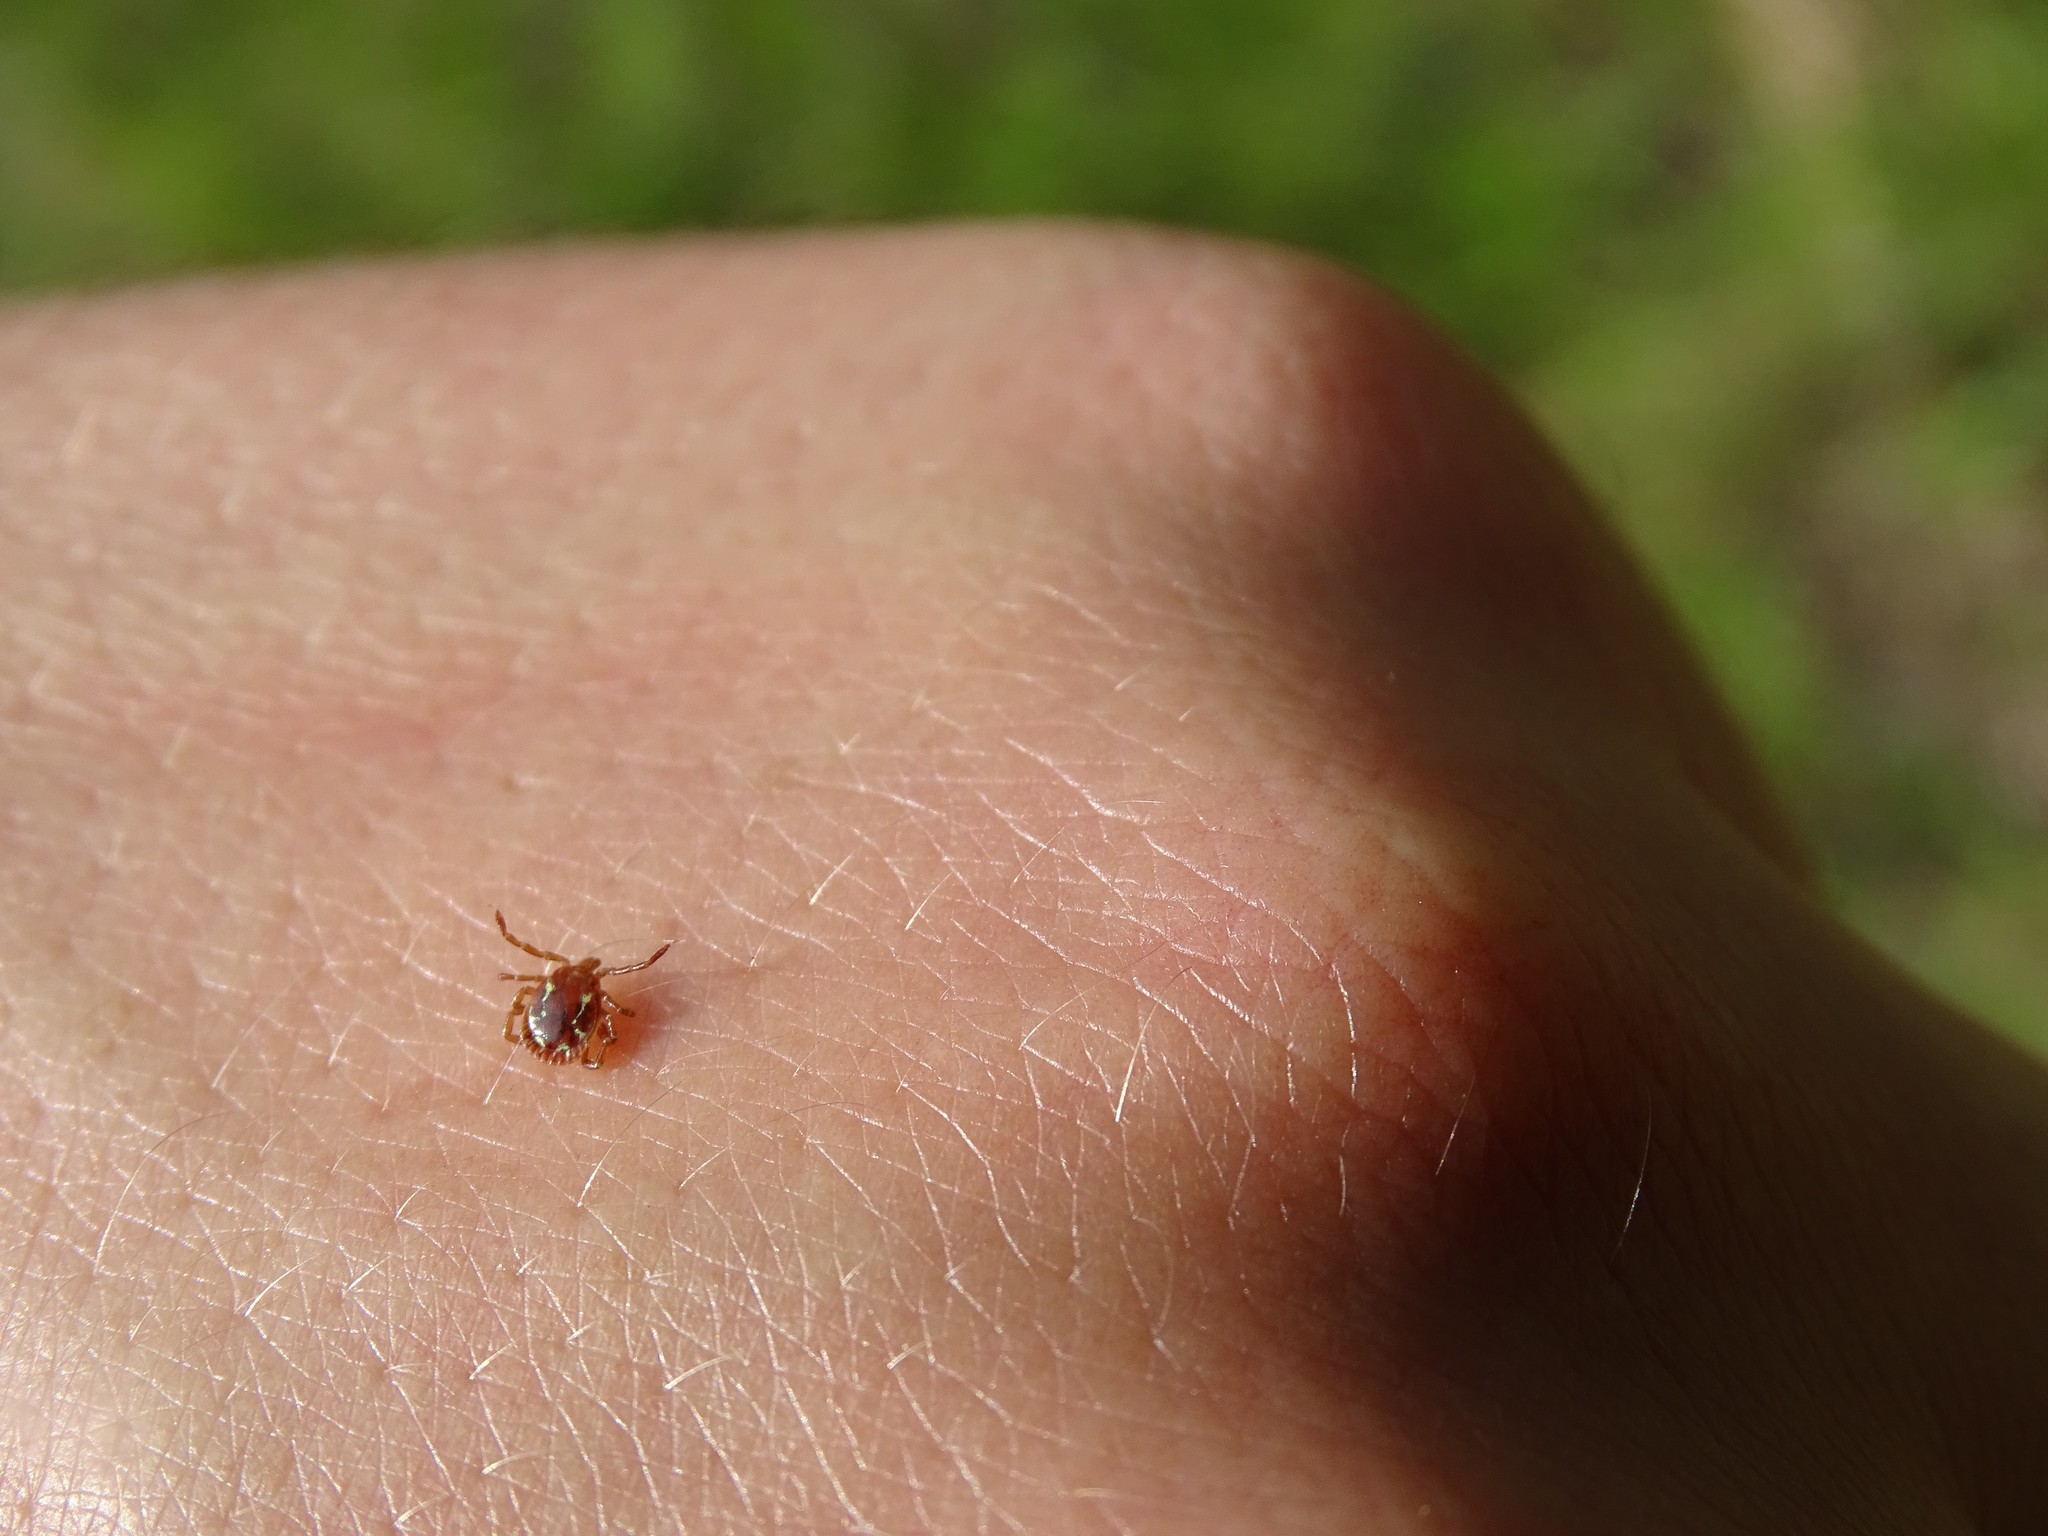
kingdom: Animalia
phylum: Arthropoda
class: Arachnida
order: Ixodida
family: Ixodidae
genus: Amblyomma
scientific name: Amblyomma americanum
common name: Lone star tick
